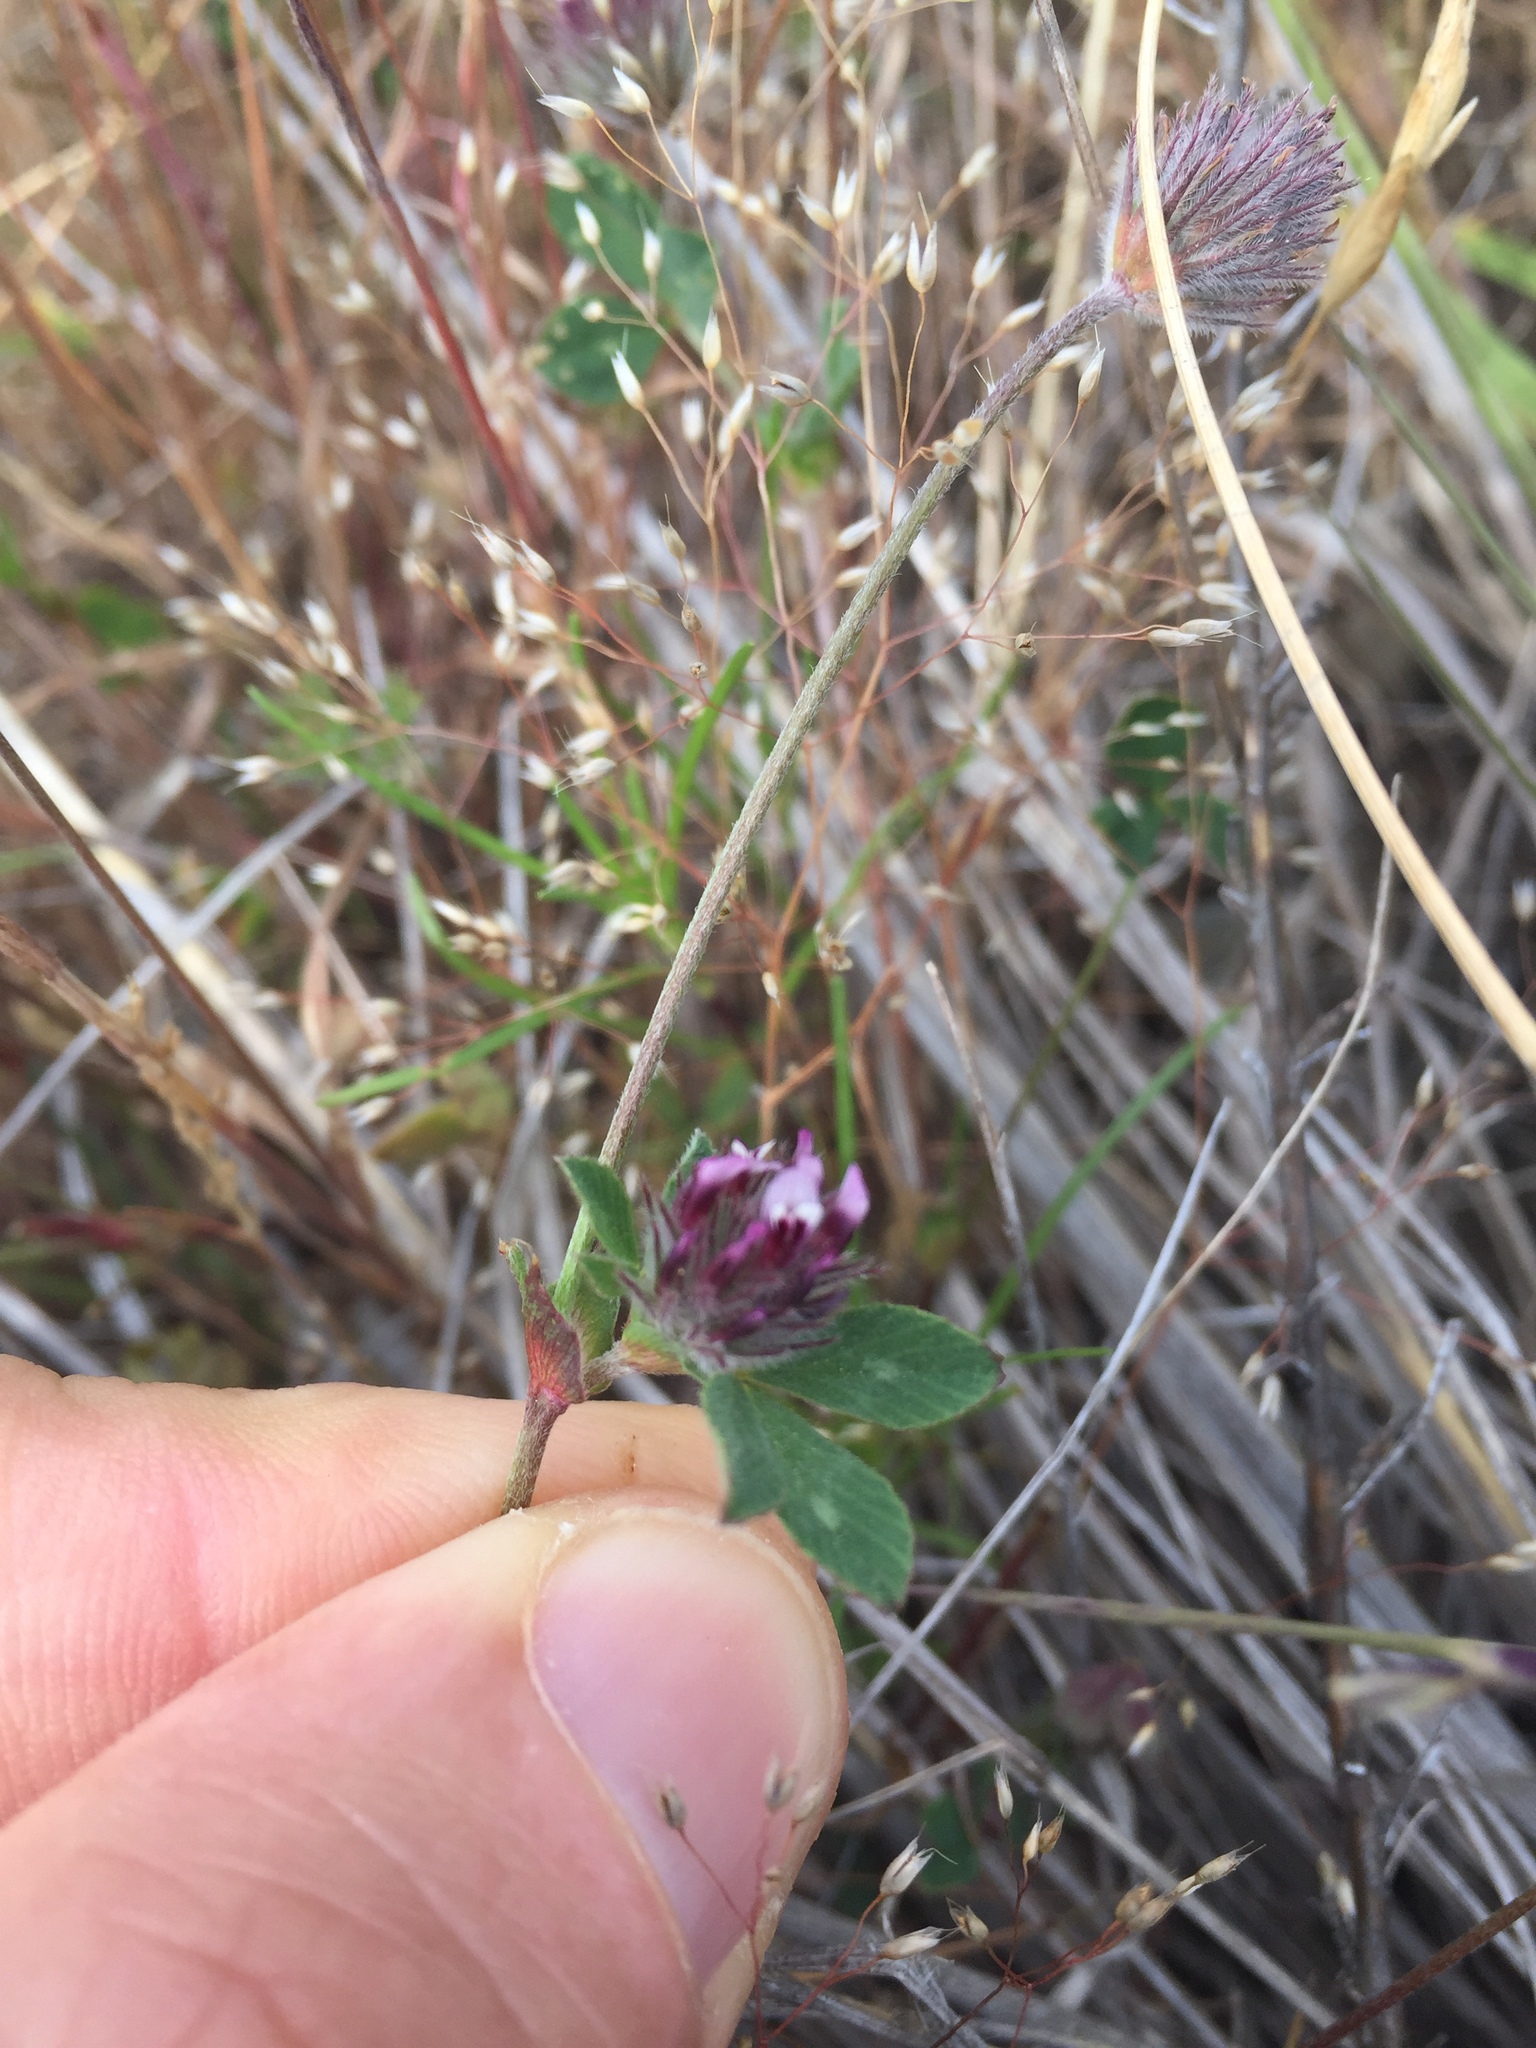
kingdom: Plantae
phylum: Tracheophyta
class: Magnoliopsida
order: Fabales
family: Fabaceae
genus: Trifolium
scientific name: Trifolium dichotomum
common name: Branched indian clover
